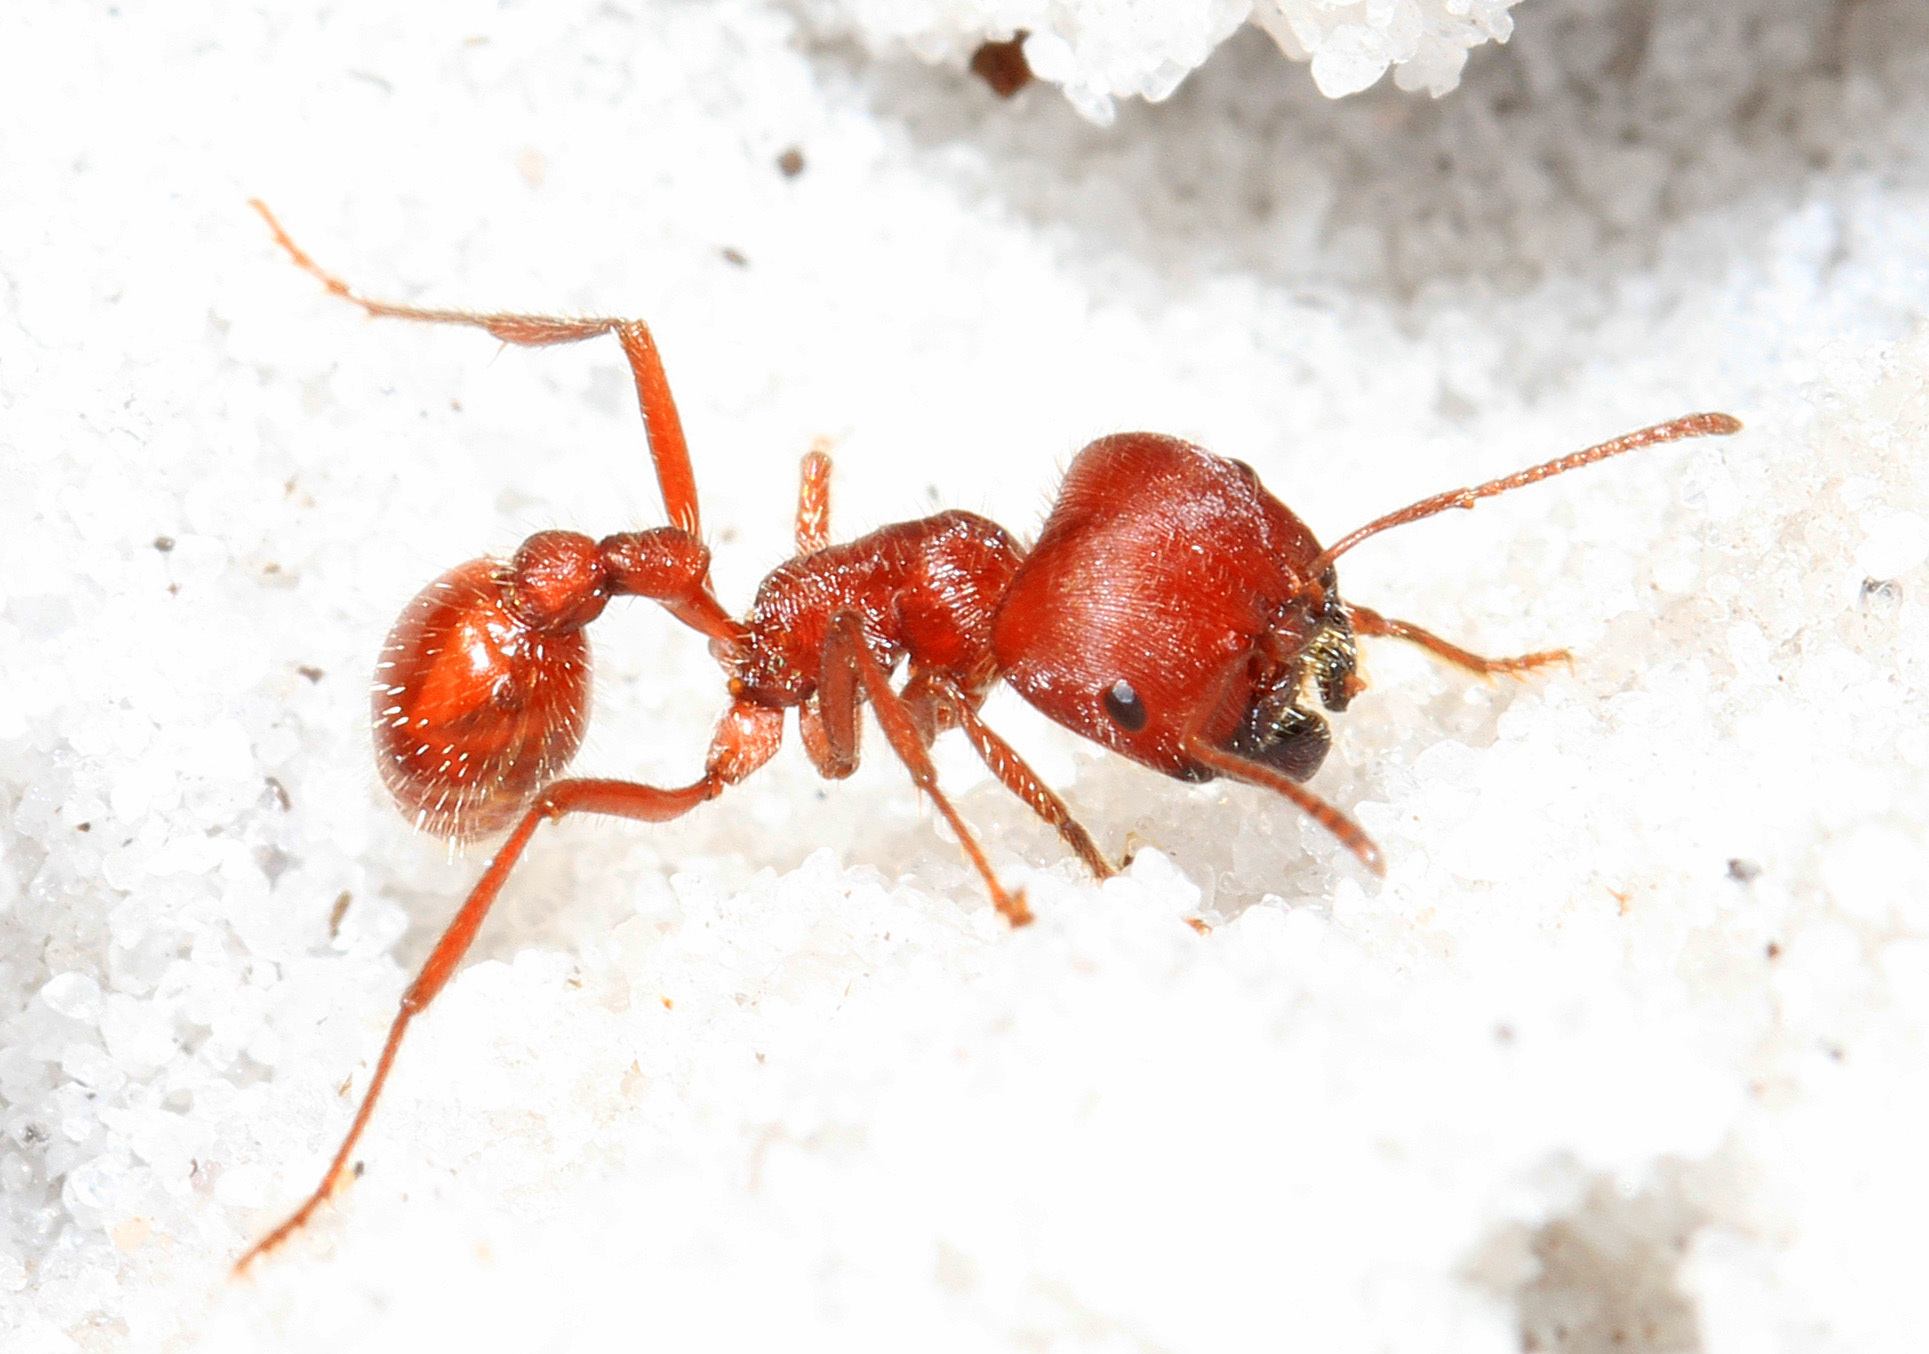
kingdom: Animalia
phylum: Arthropoda
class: Insecta
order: Hymenoptera
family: Formicidae
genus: Pogonomyrmex
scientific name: Pogonomyrmex badius
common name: Florida harvester ant
